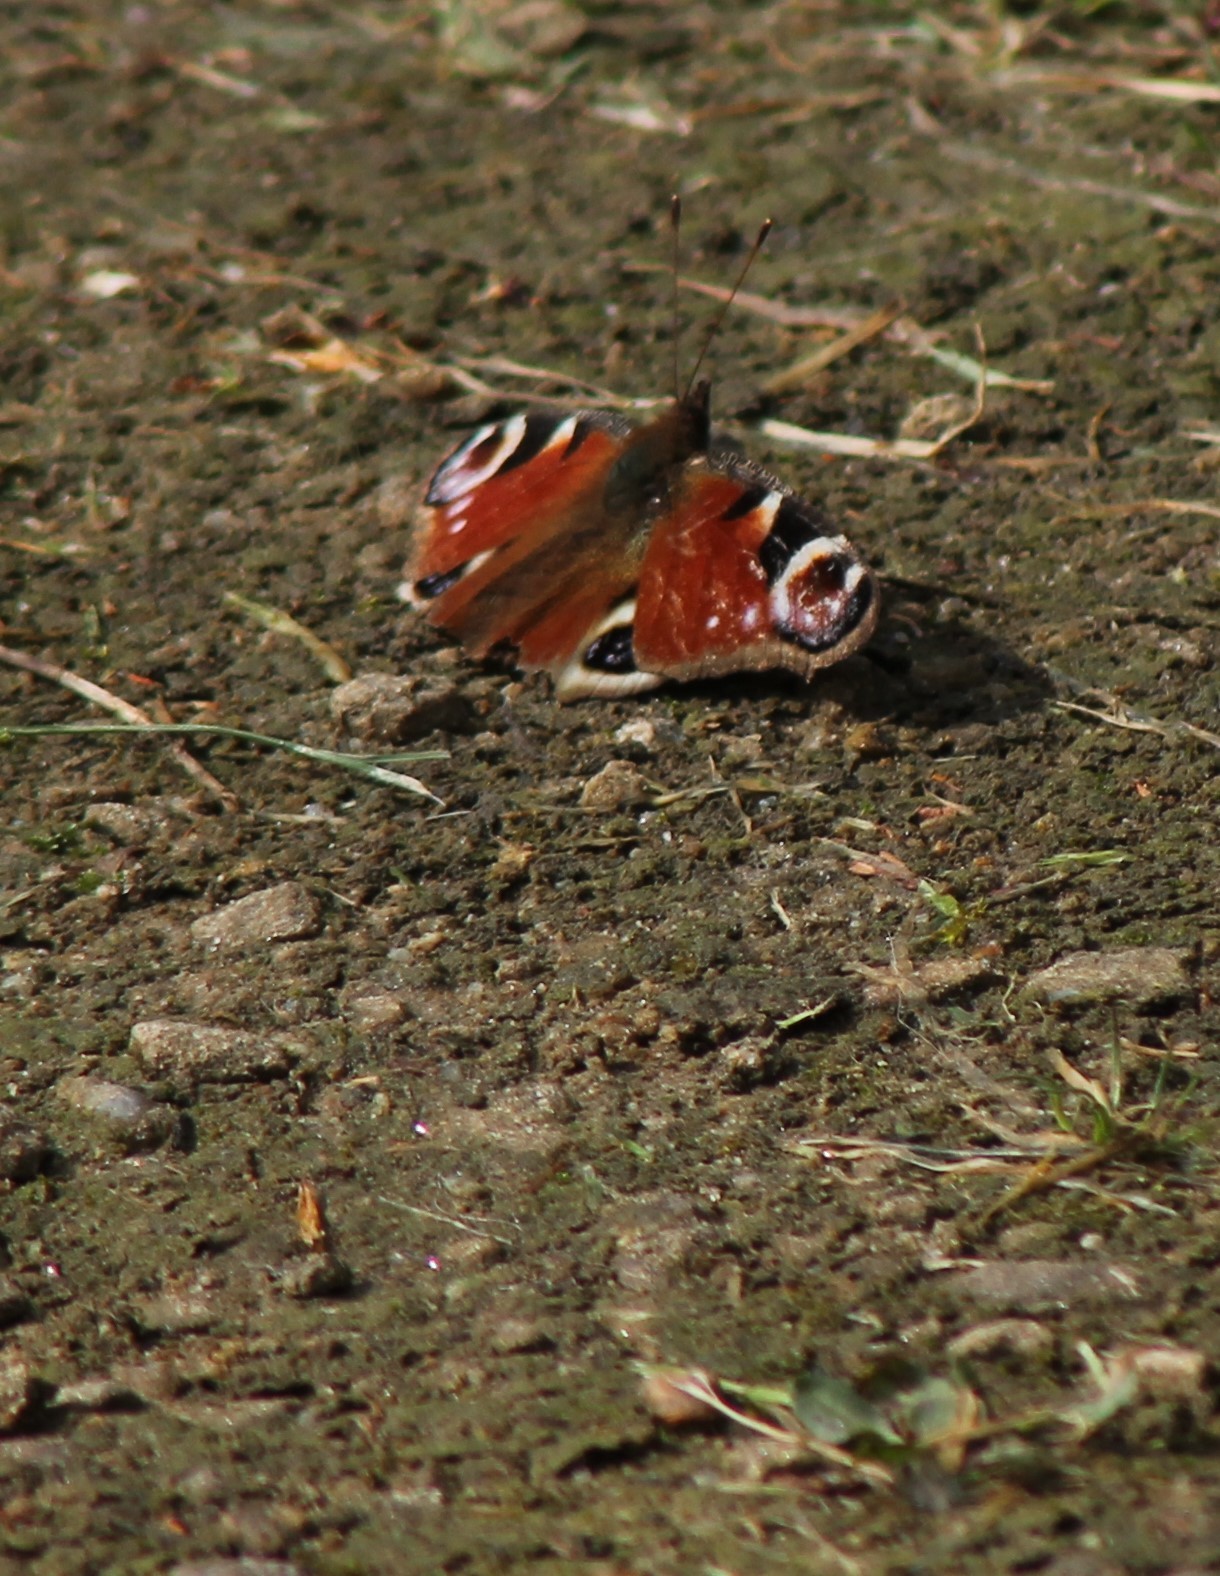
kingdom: Animalia
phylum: Arthropoda
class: Insecta
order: Lepidoptera
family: Nymphalidae
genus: Aglais
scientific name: Aglais io
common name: Peacock
